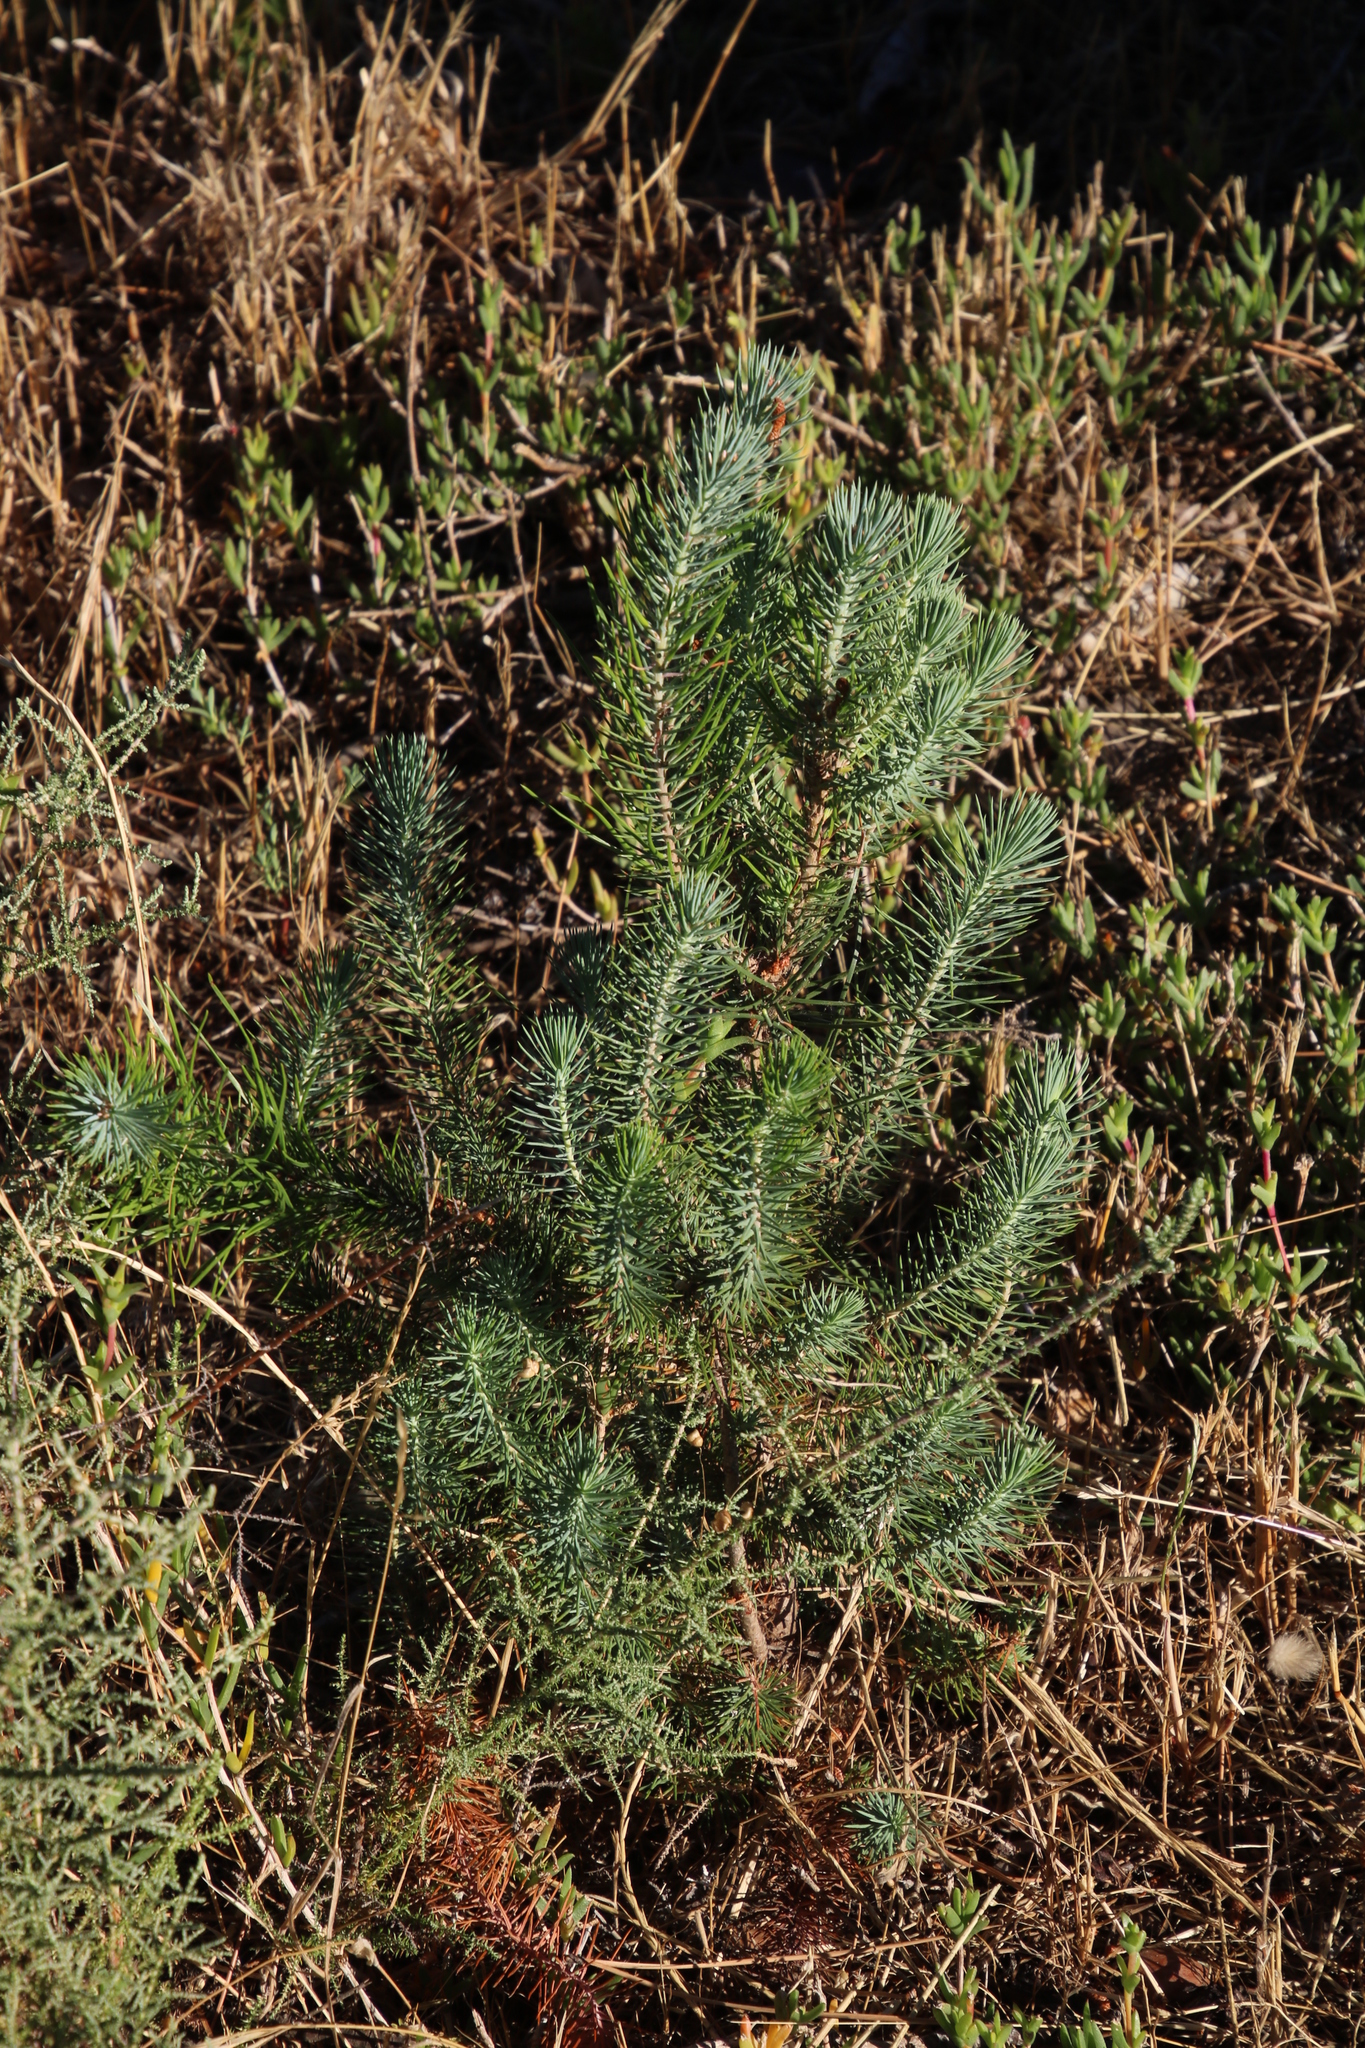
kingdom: Plantae
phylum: Tracheophyta
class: Pinopsida
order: Pinales
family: Pinaceae
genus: Pinus
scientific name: Pinus pinea
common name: Italian stone pine
